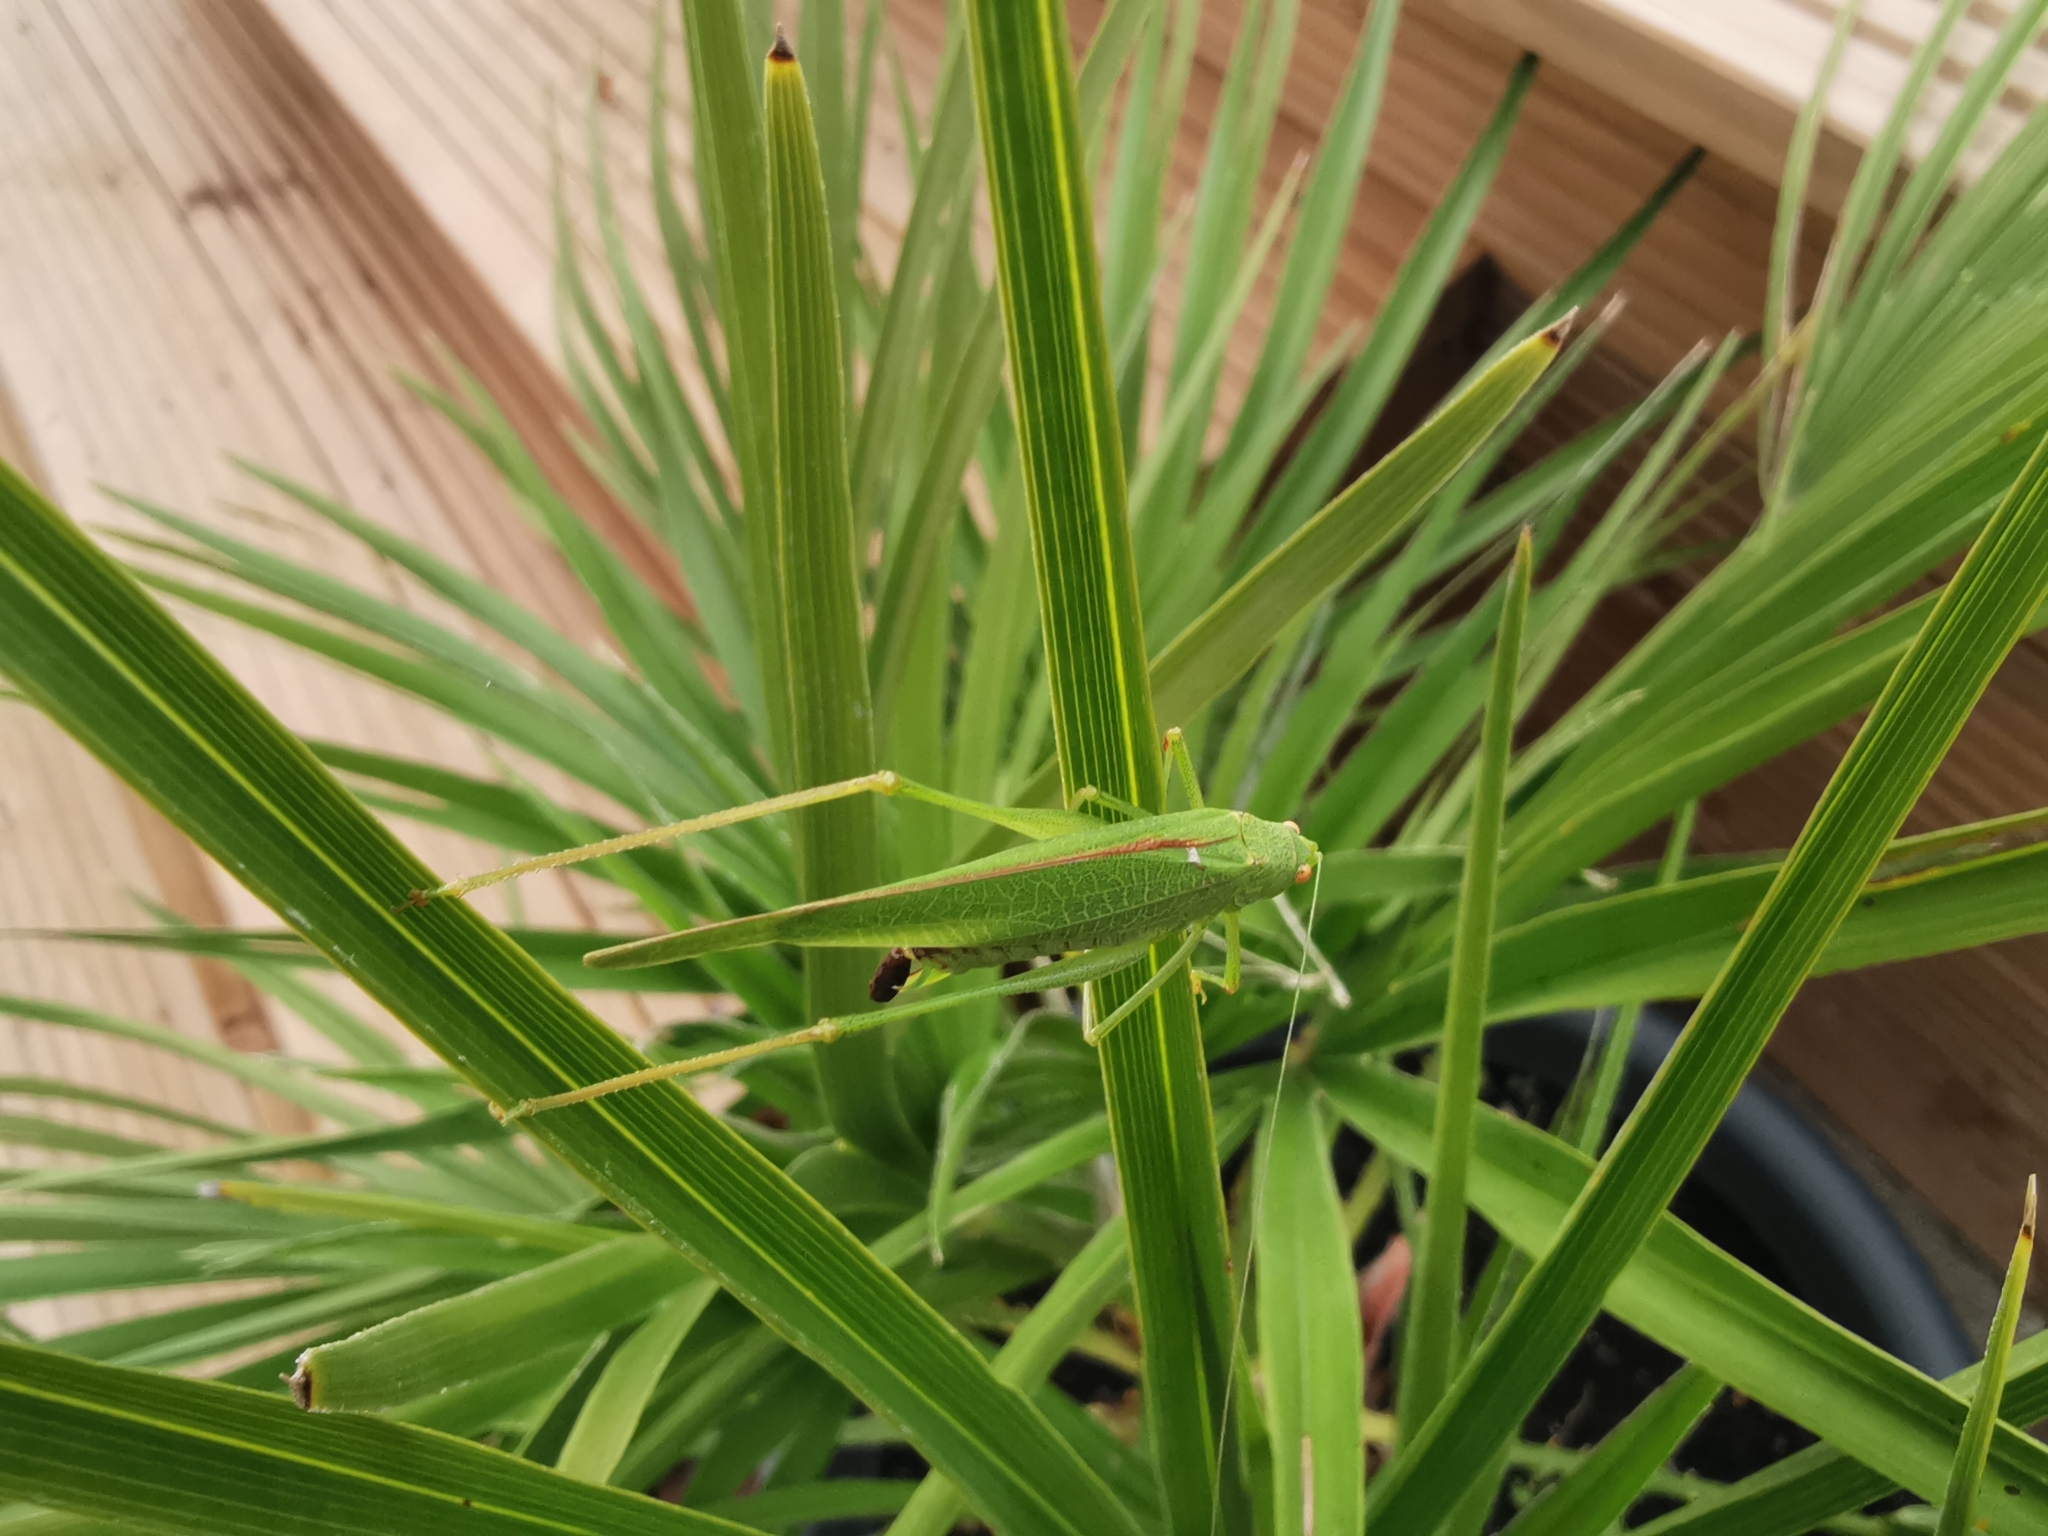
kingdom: Animalia
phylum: Arthropoda
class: Insecta
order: Orthoptera
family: Tettigoniidae
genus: Phaneroptera
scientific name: Phaneroptera nana
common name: Southern sickle bush-cricket
